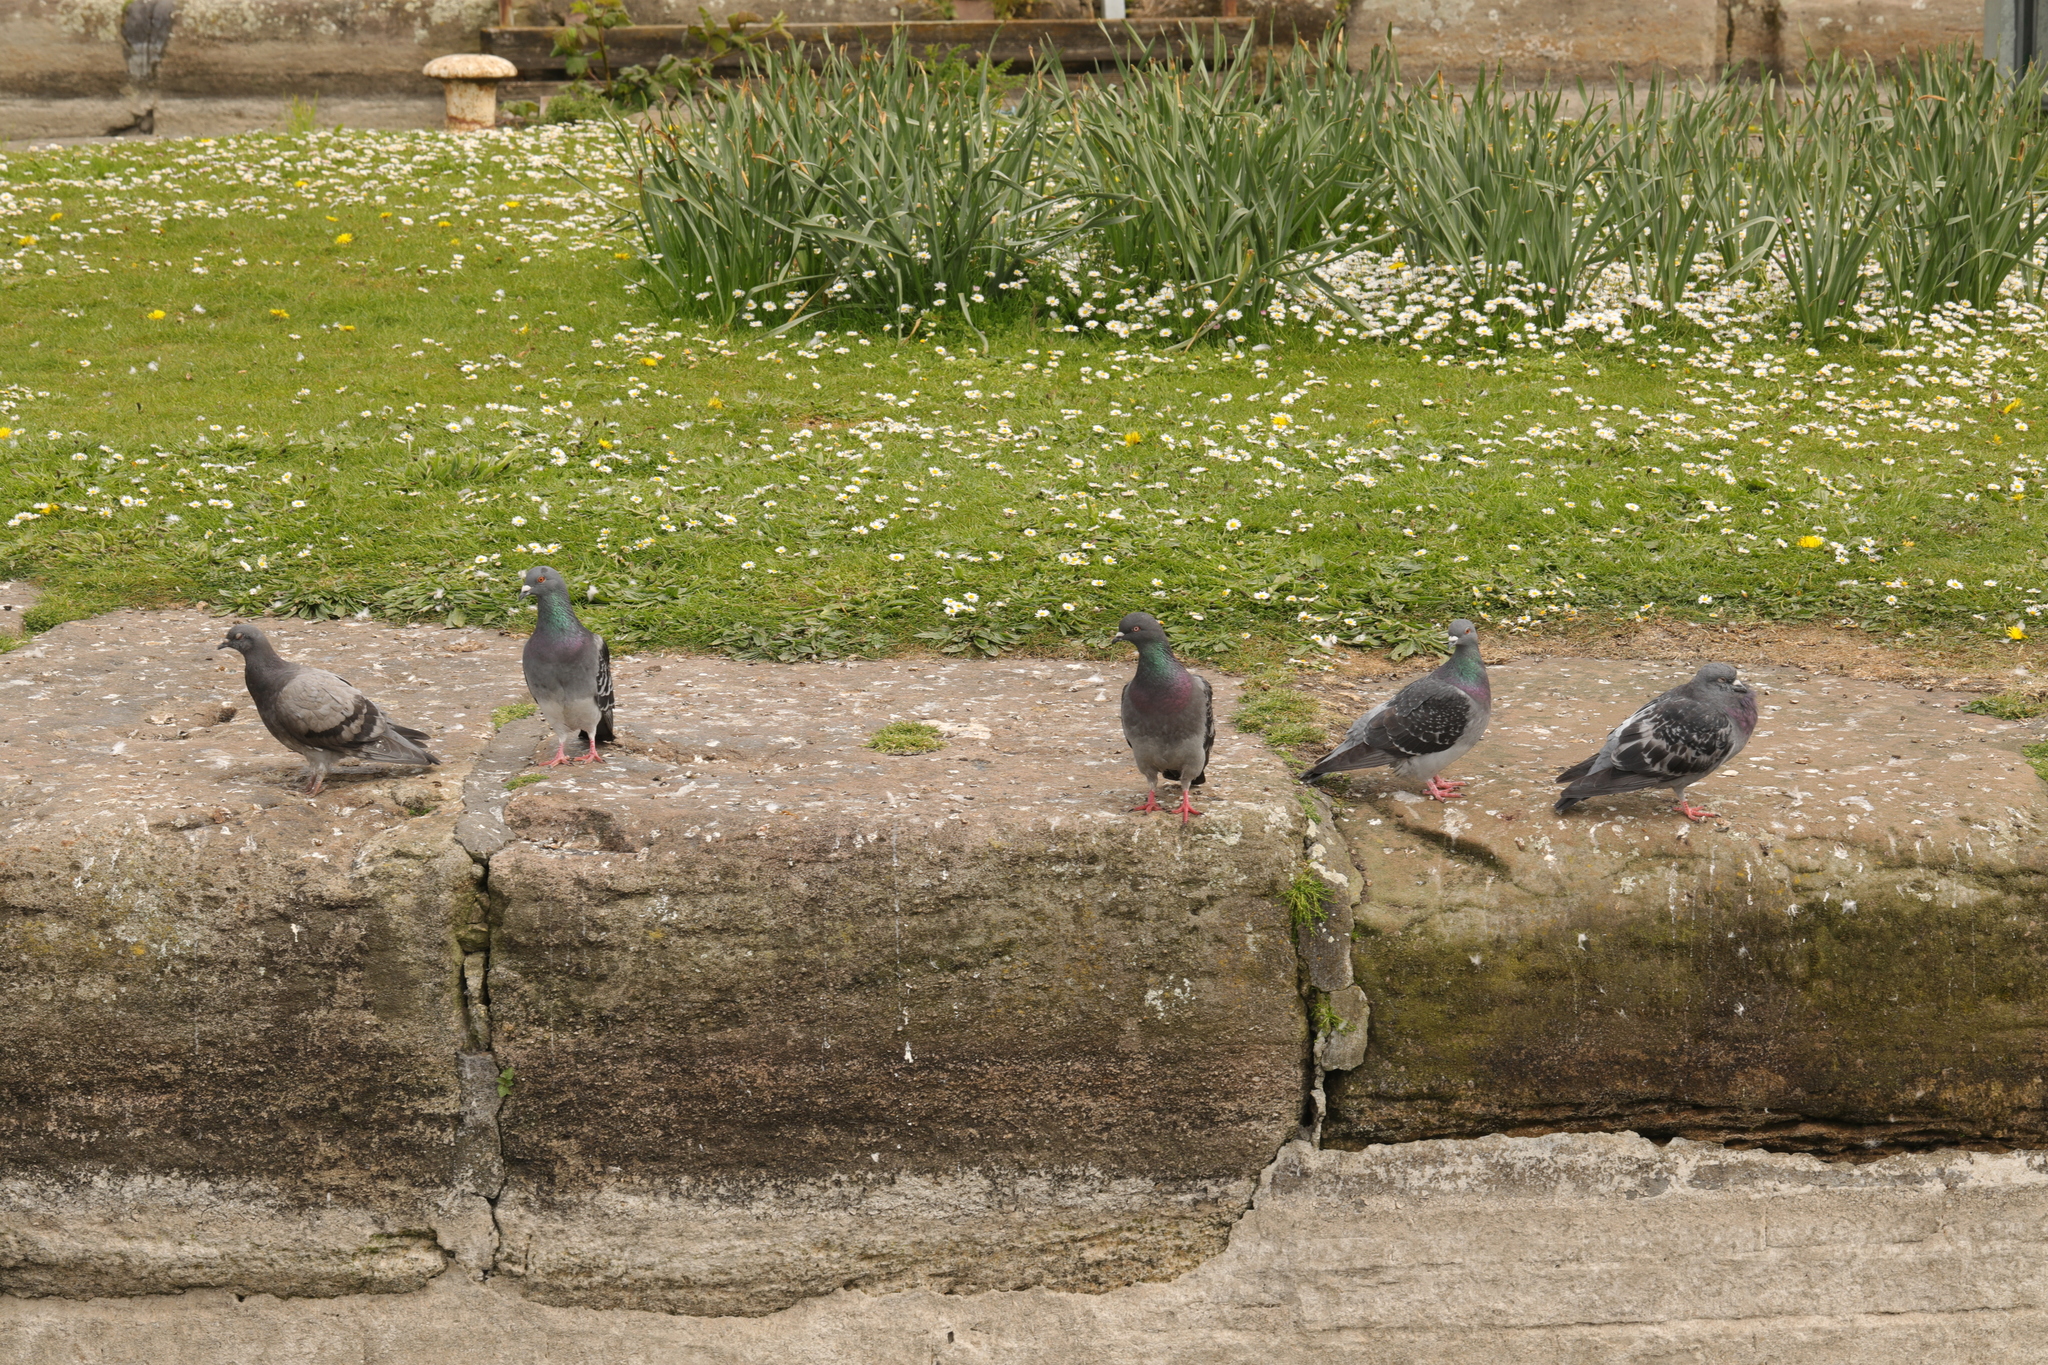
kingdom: Animalia
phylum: Chordata
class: Aves
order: Columbiformes
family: Columbidae
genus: Columba
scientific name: Columba livia
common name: Rock pigeon
